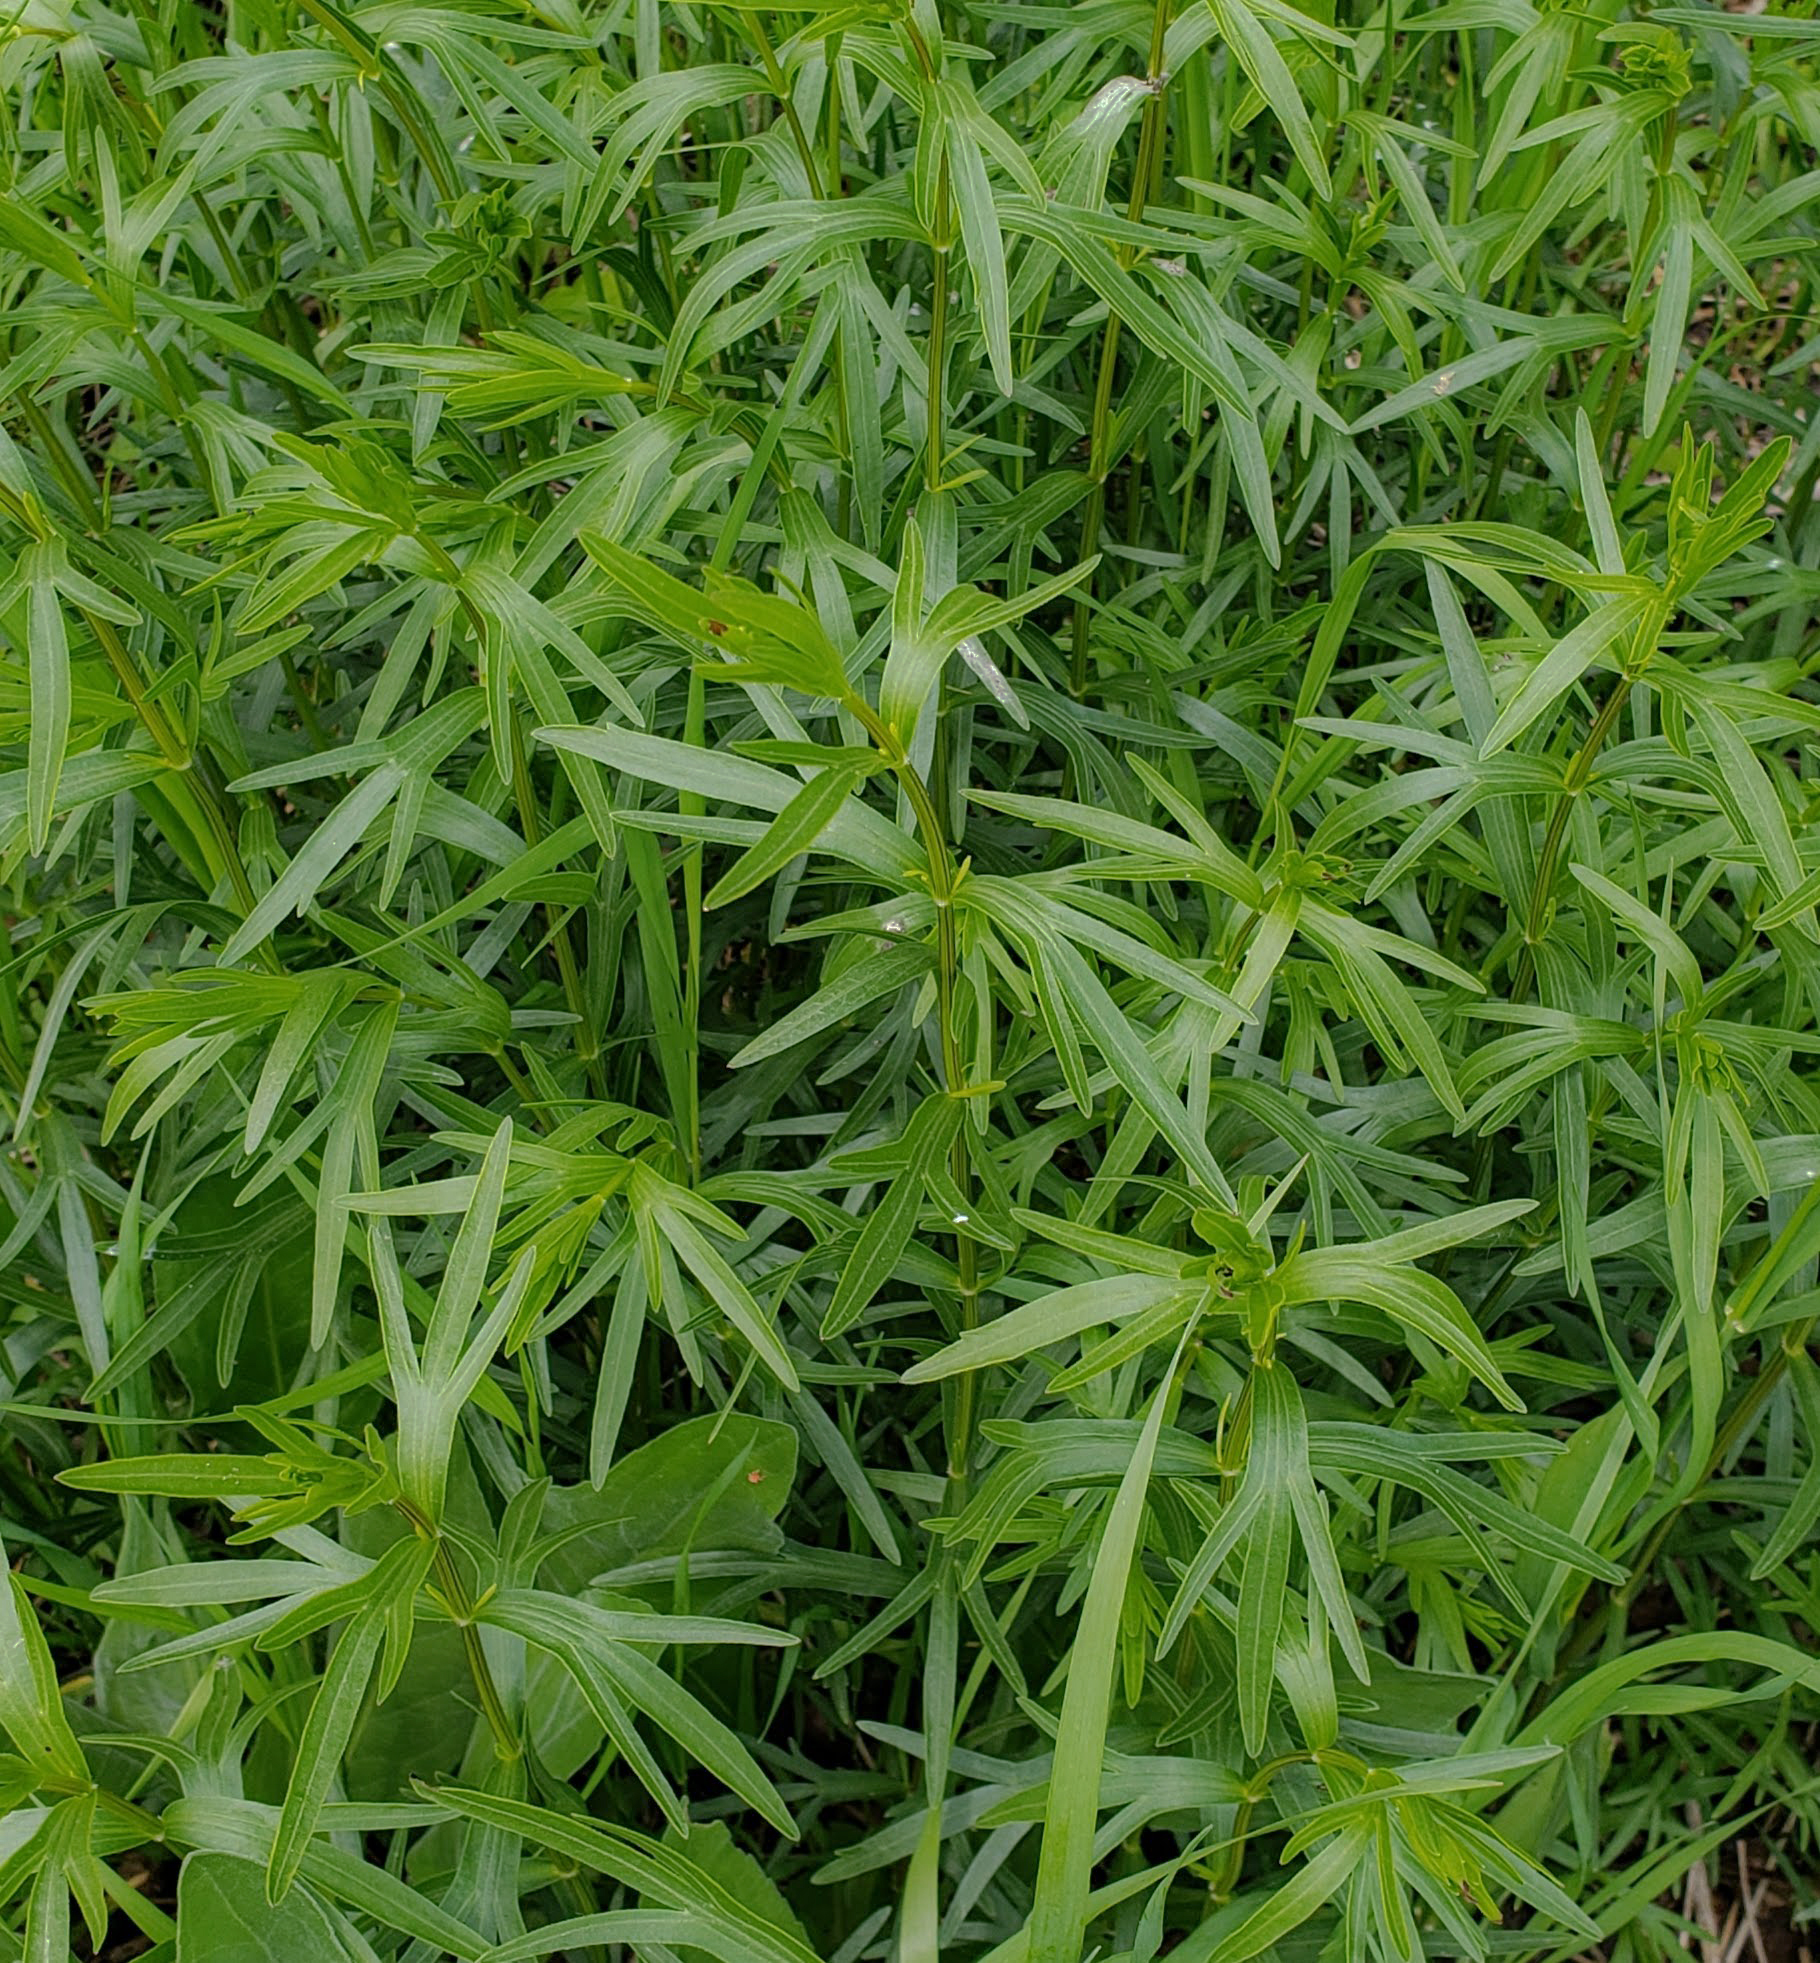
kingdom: Plantae
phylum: Tracheophyta
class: Magnoliopsida
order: Asterales
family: Asteraceae
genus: Coreopsis
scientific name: Coreopsis palmata
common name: Prairie coreopsis
